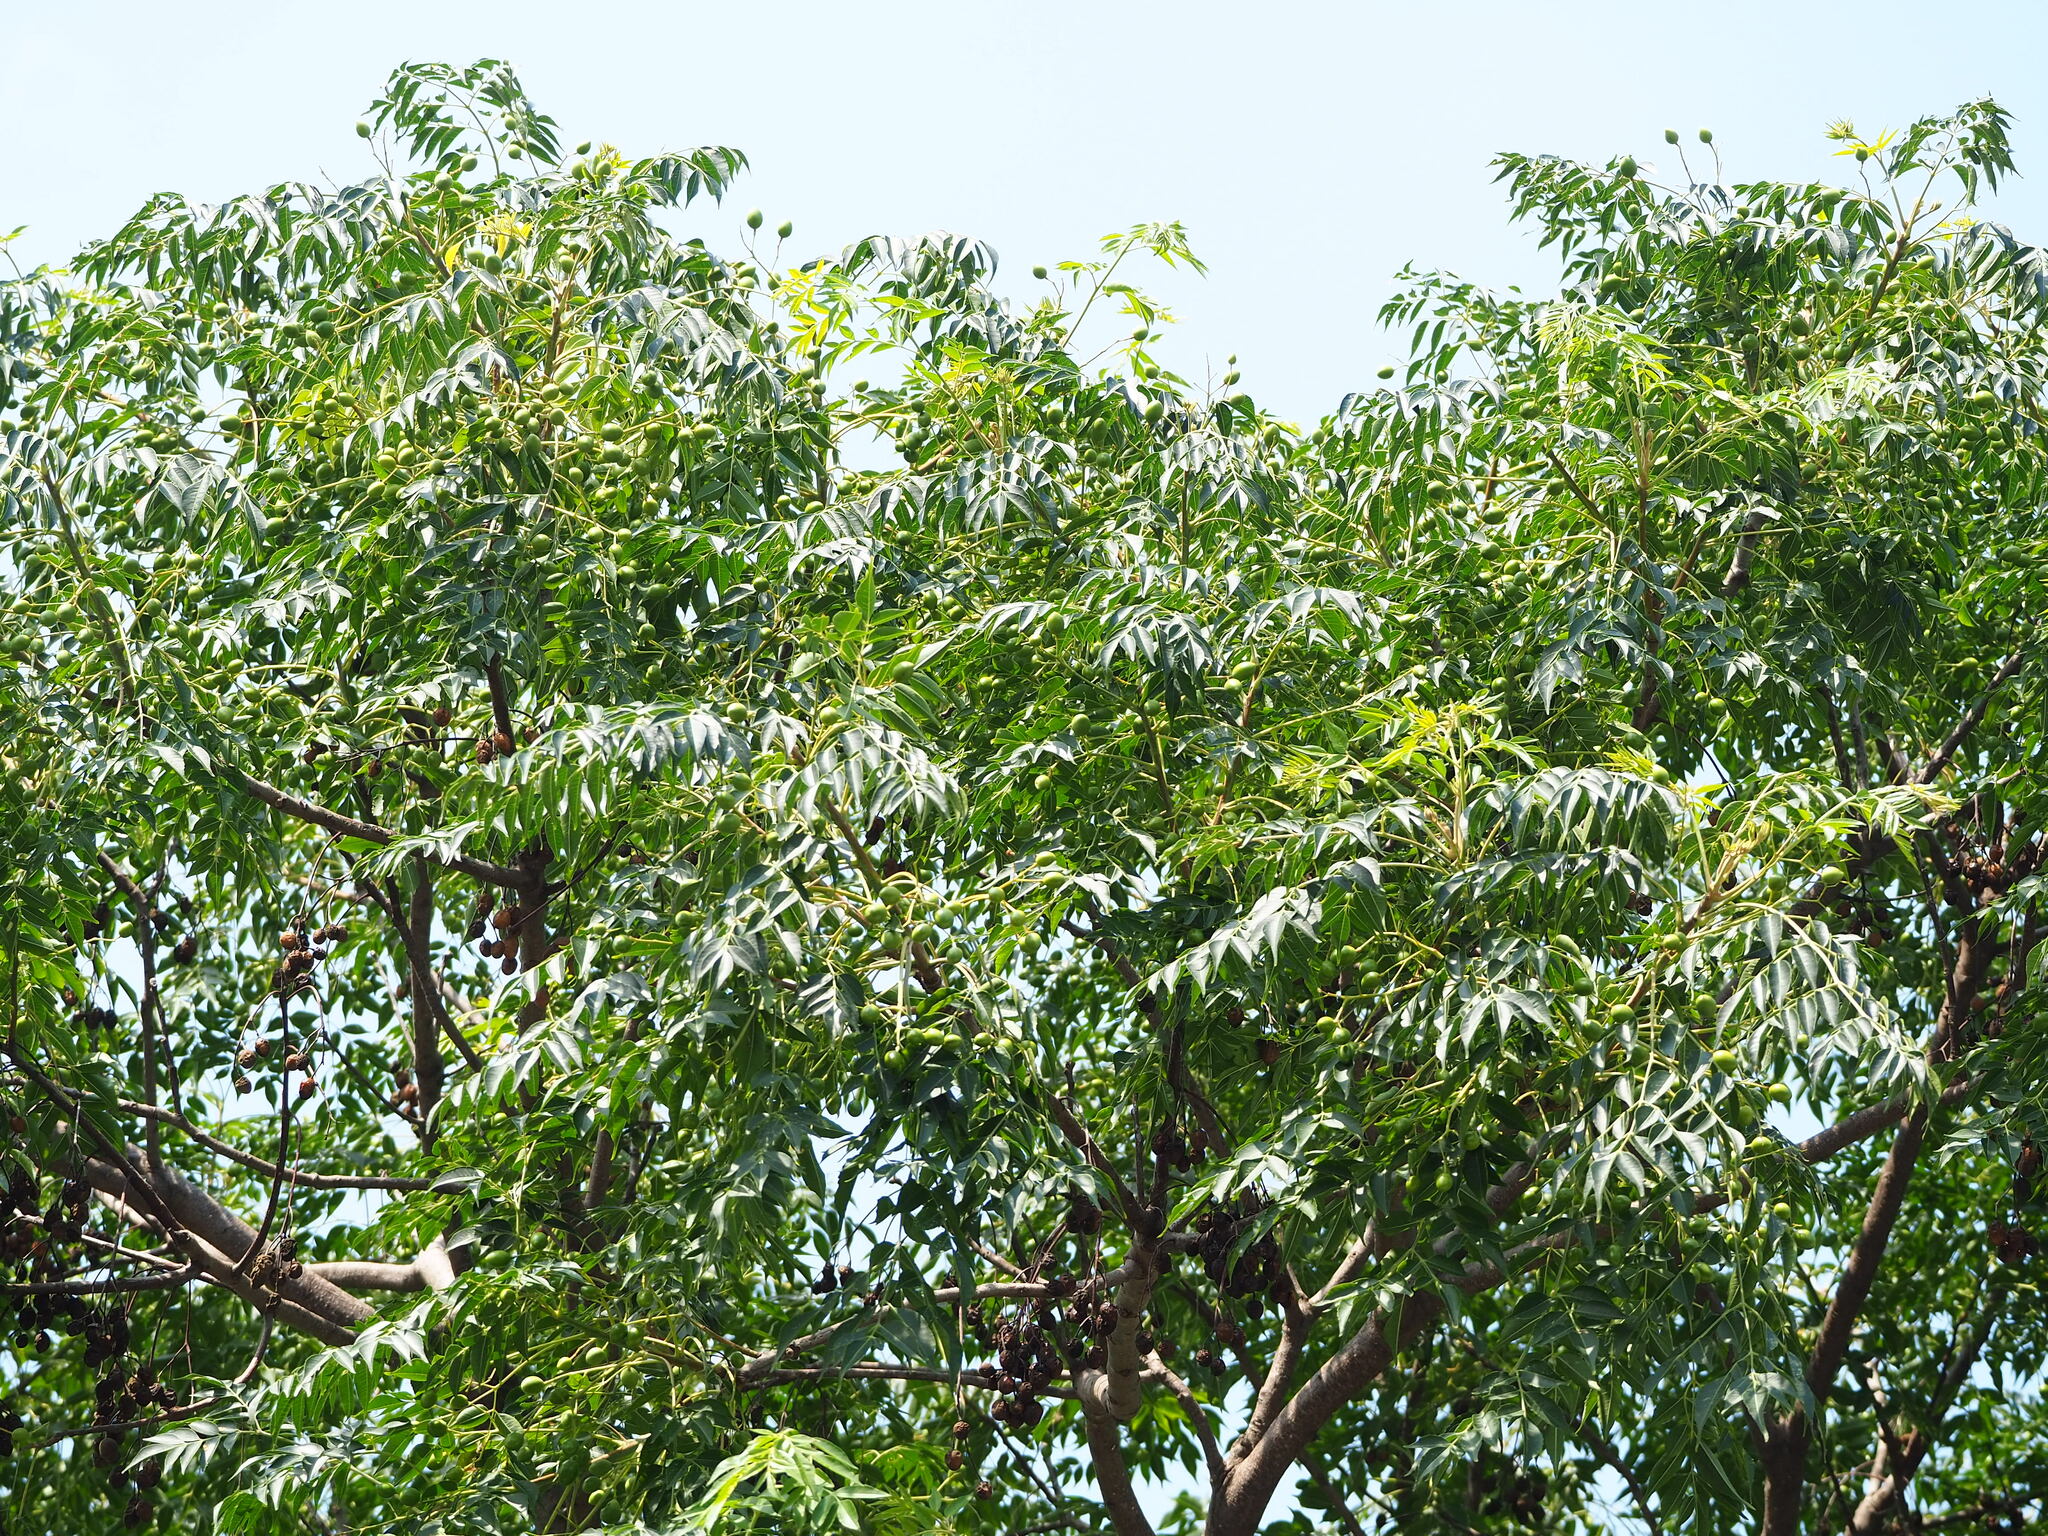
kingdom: Plantae
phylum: Tracheophyta
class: Magnoliopsida
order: Sapindales
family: Meliaceae
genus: Melia
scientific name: Melia azedarach
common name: Chinaberrytree
